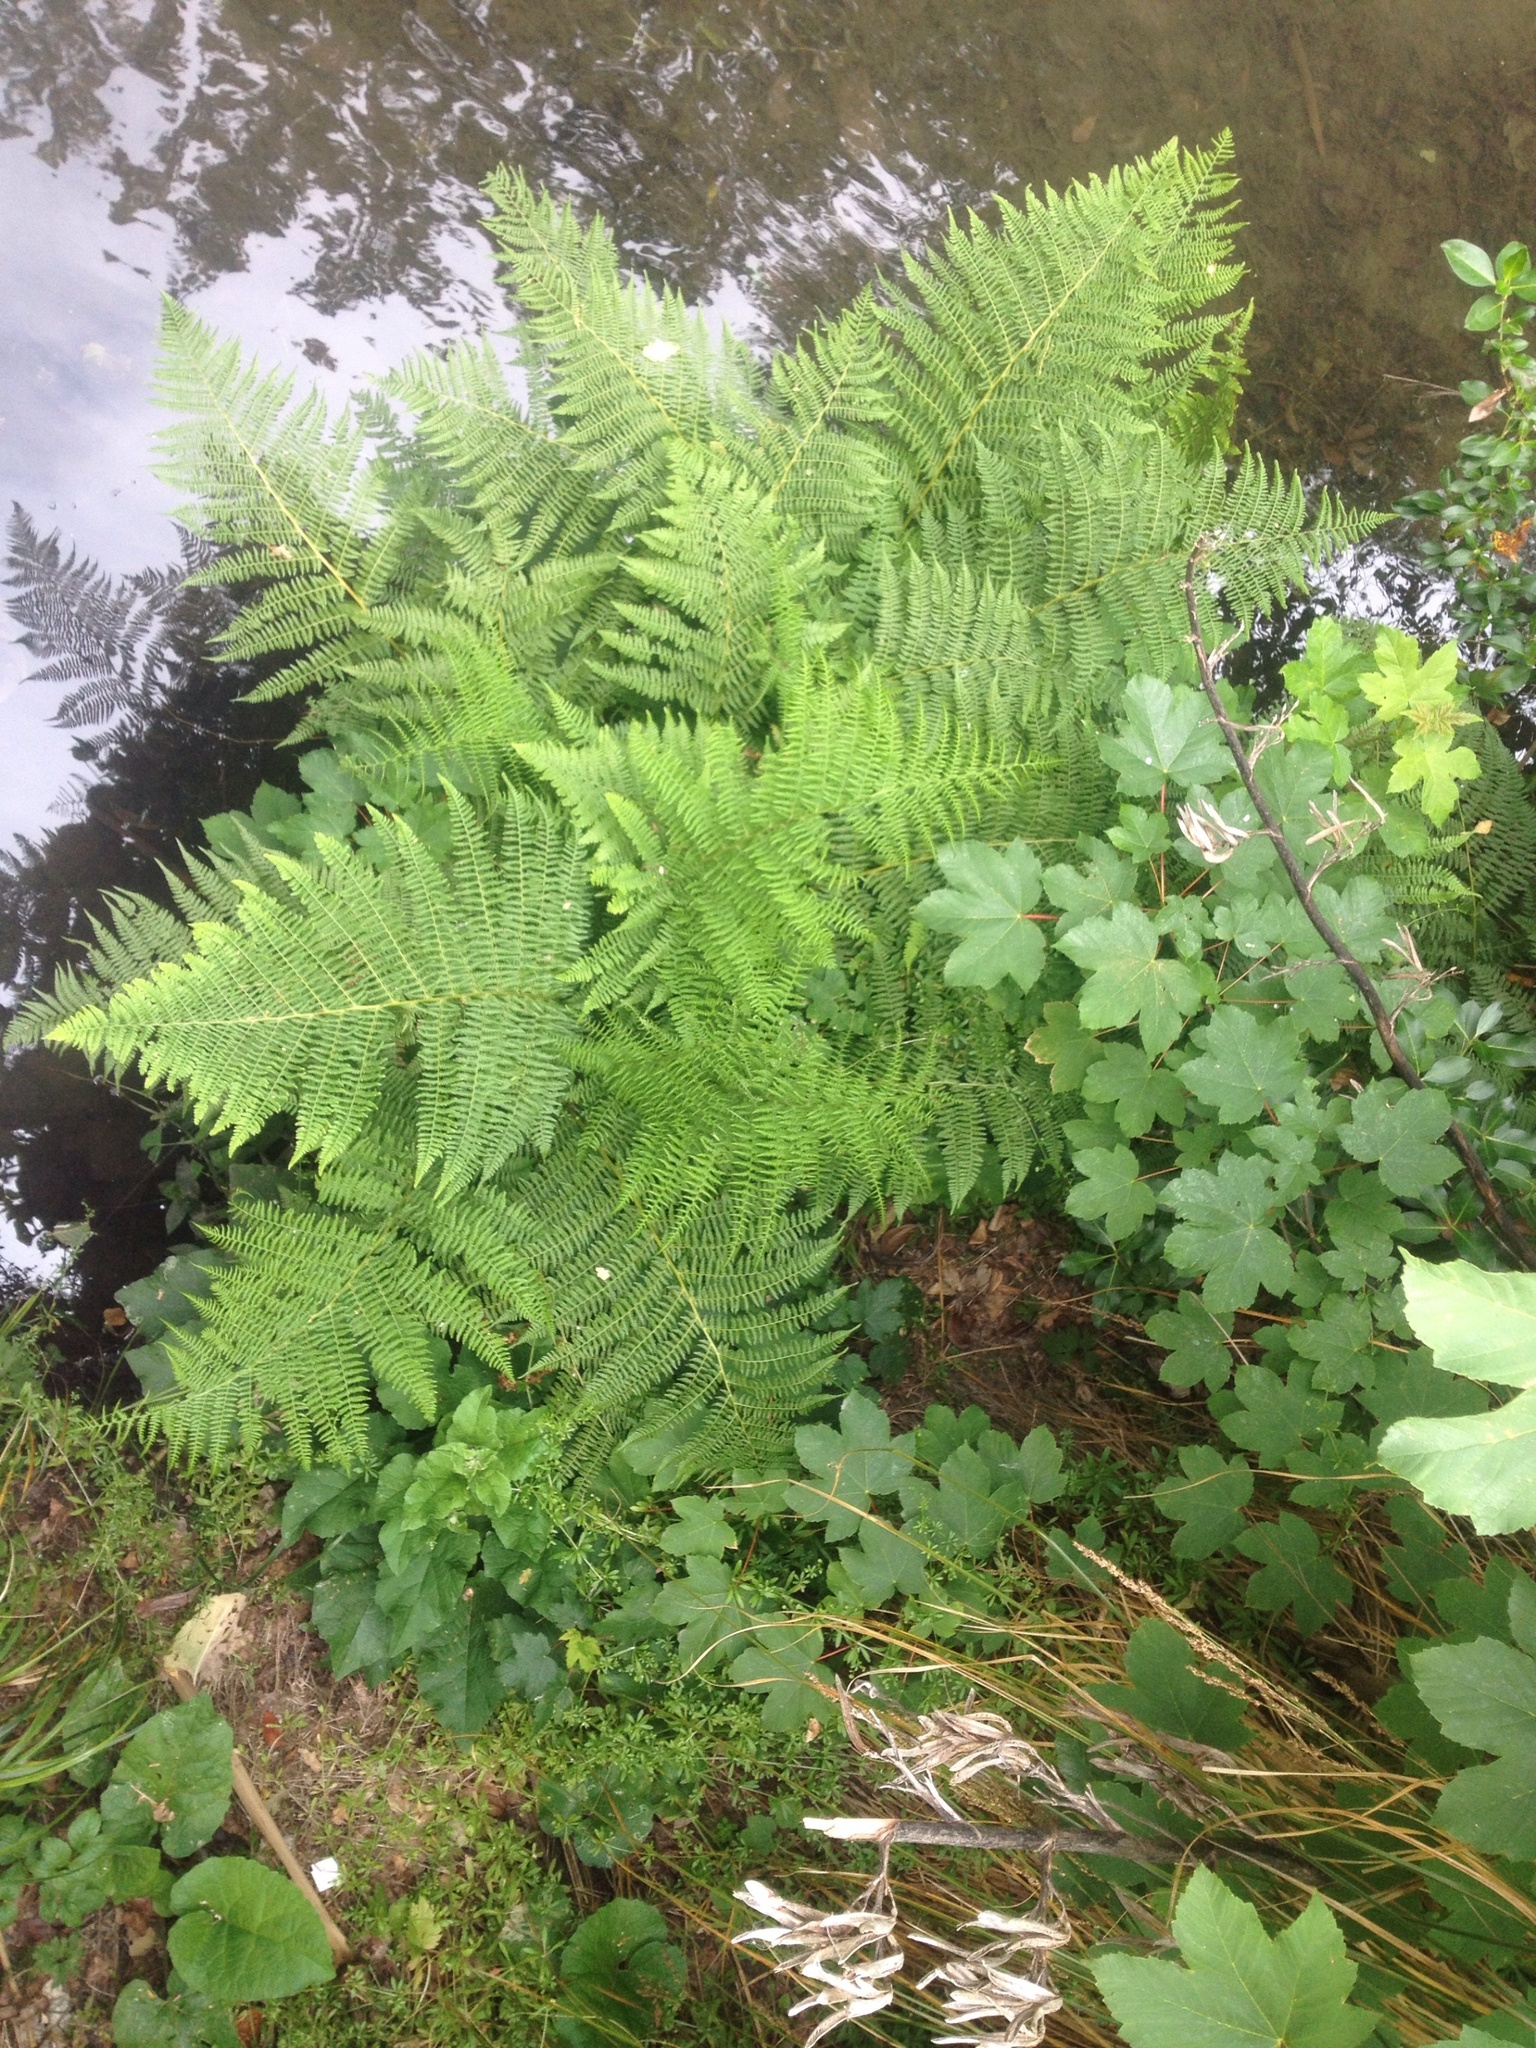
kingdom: Plantae
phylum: Tracheophyta
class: Polypodiopsida
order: Polypodiales
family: Athyriaceae
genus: Athyrium
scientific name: Athyrium filix-femina
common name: Lady fern
